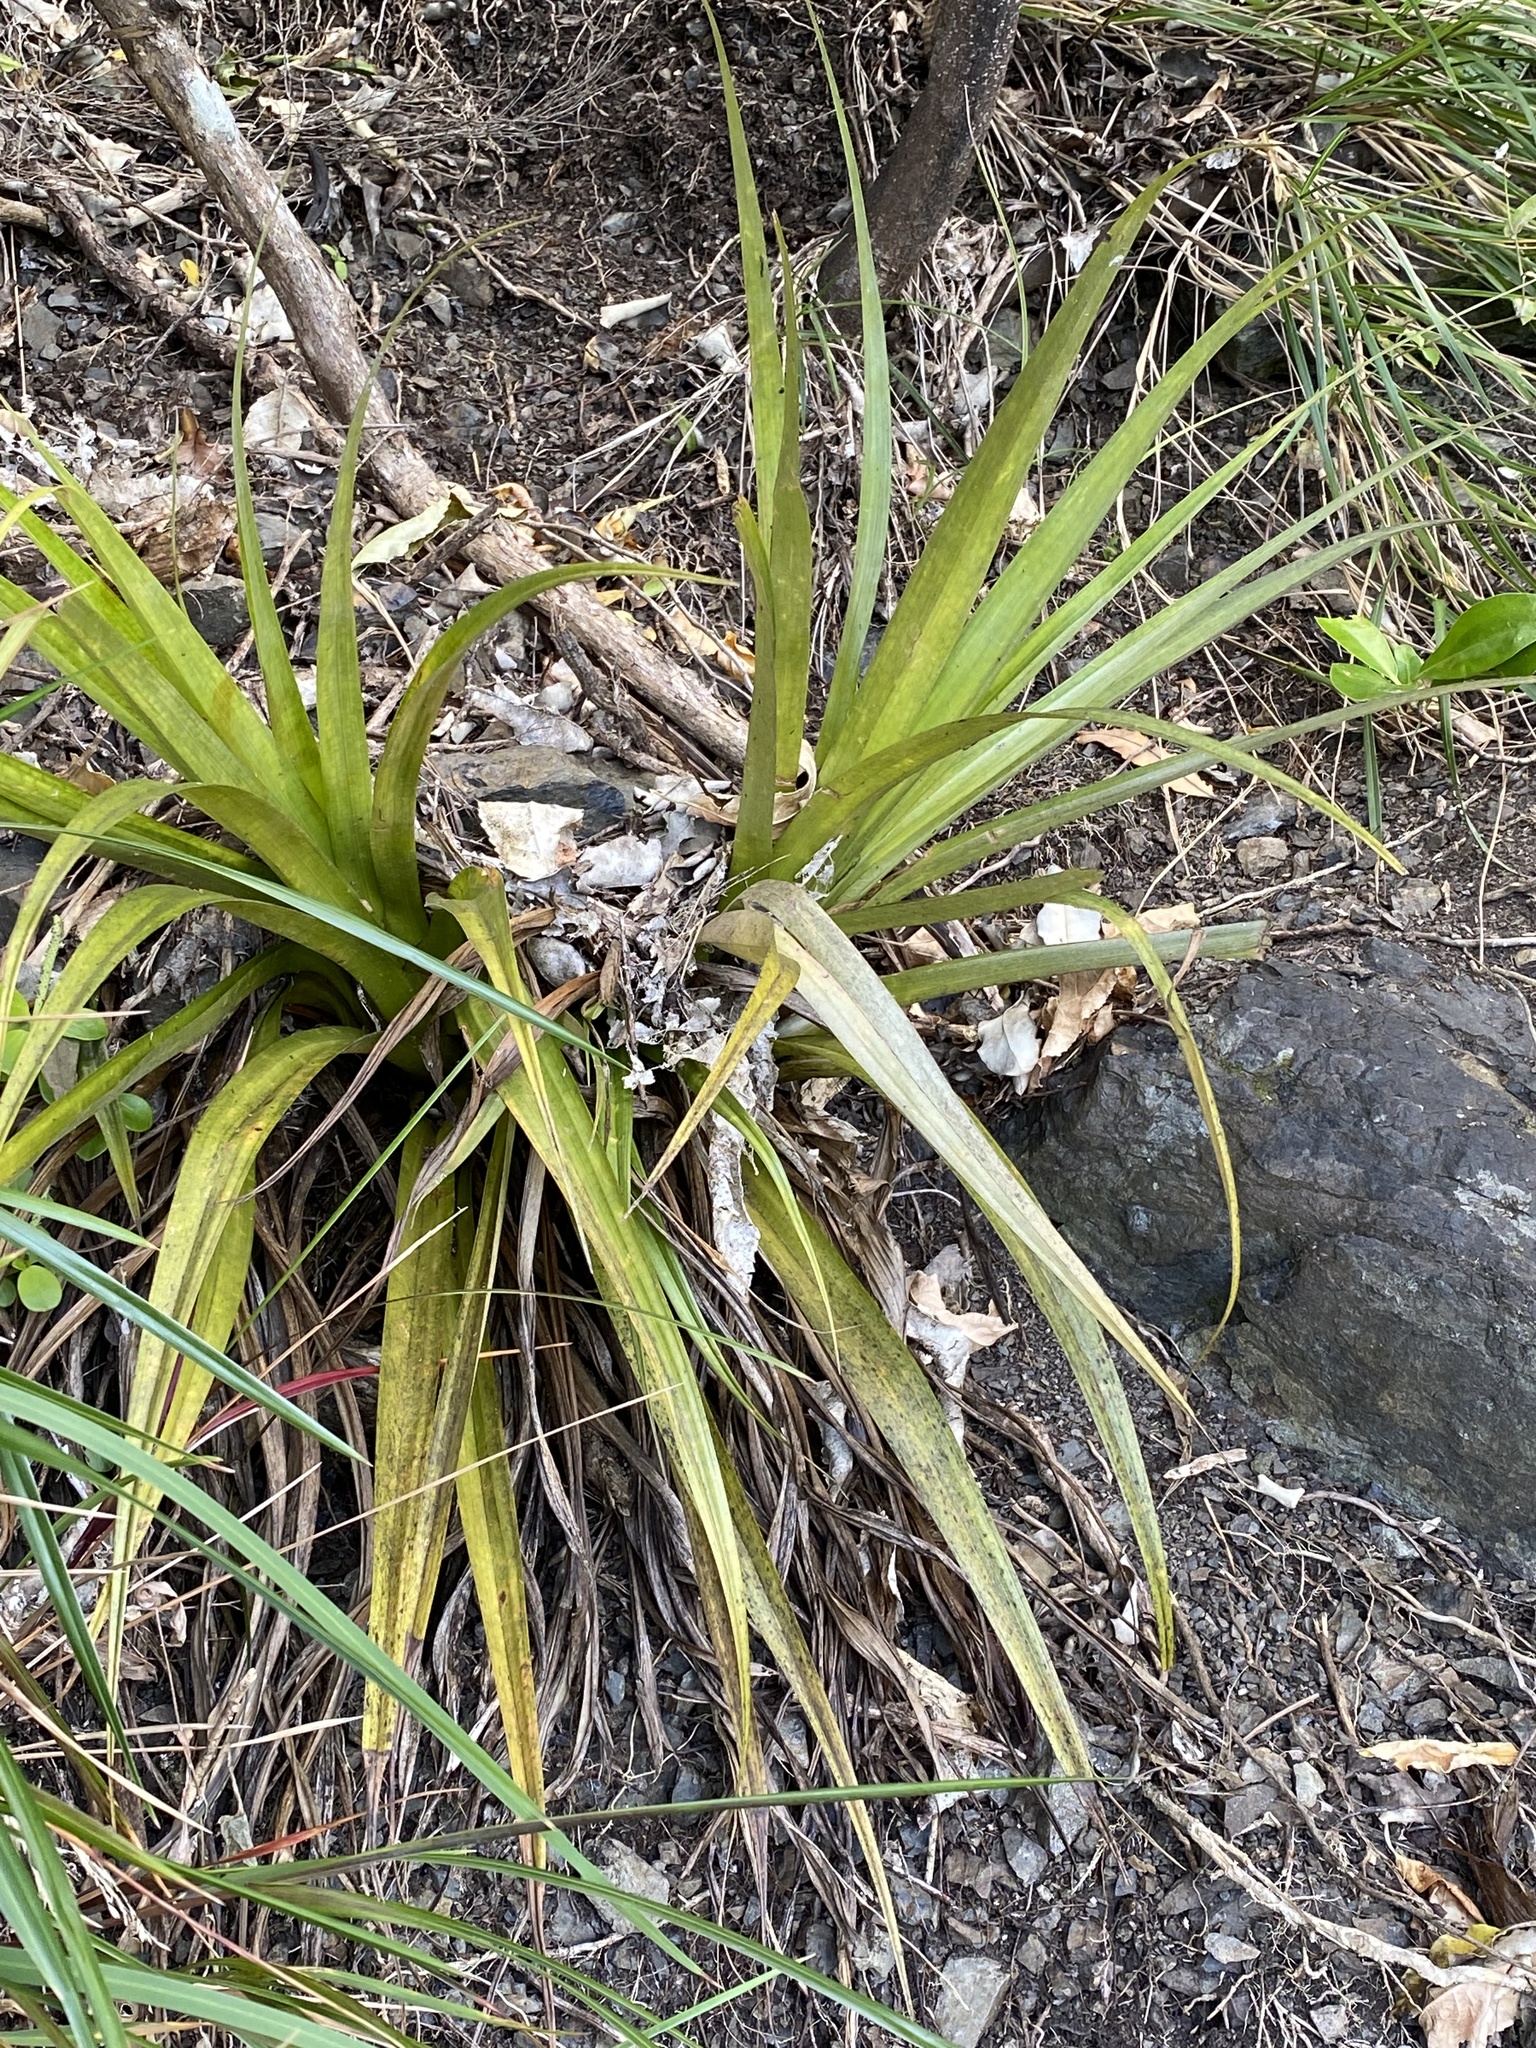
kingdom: Plantae
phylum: Tracheophyta
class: Liliopsida
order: Asparagales
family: Asteliaceae
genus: Astelia
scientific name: Astelia hastata
